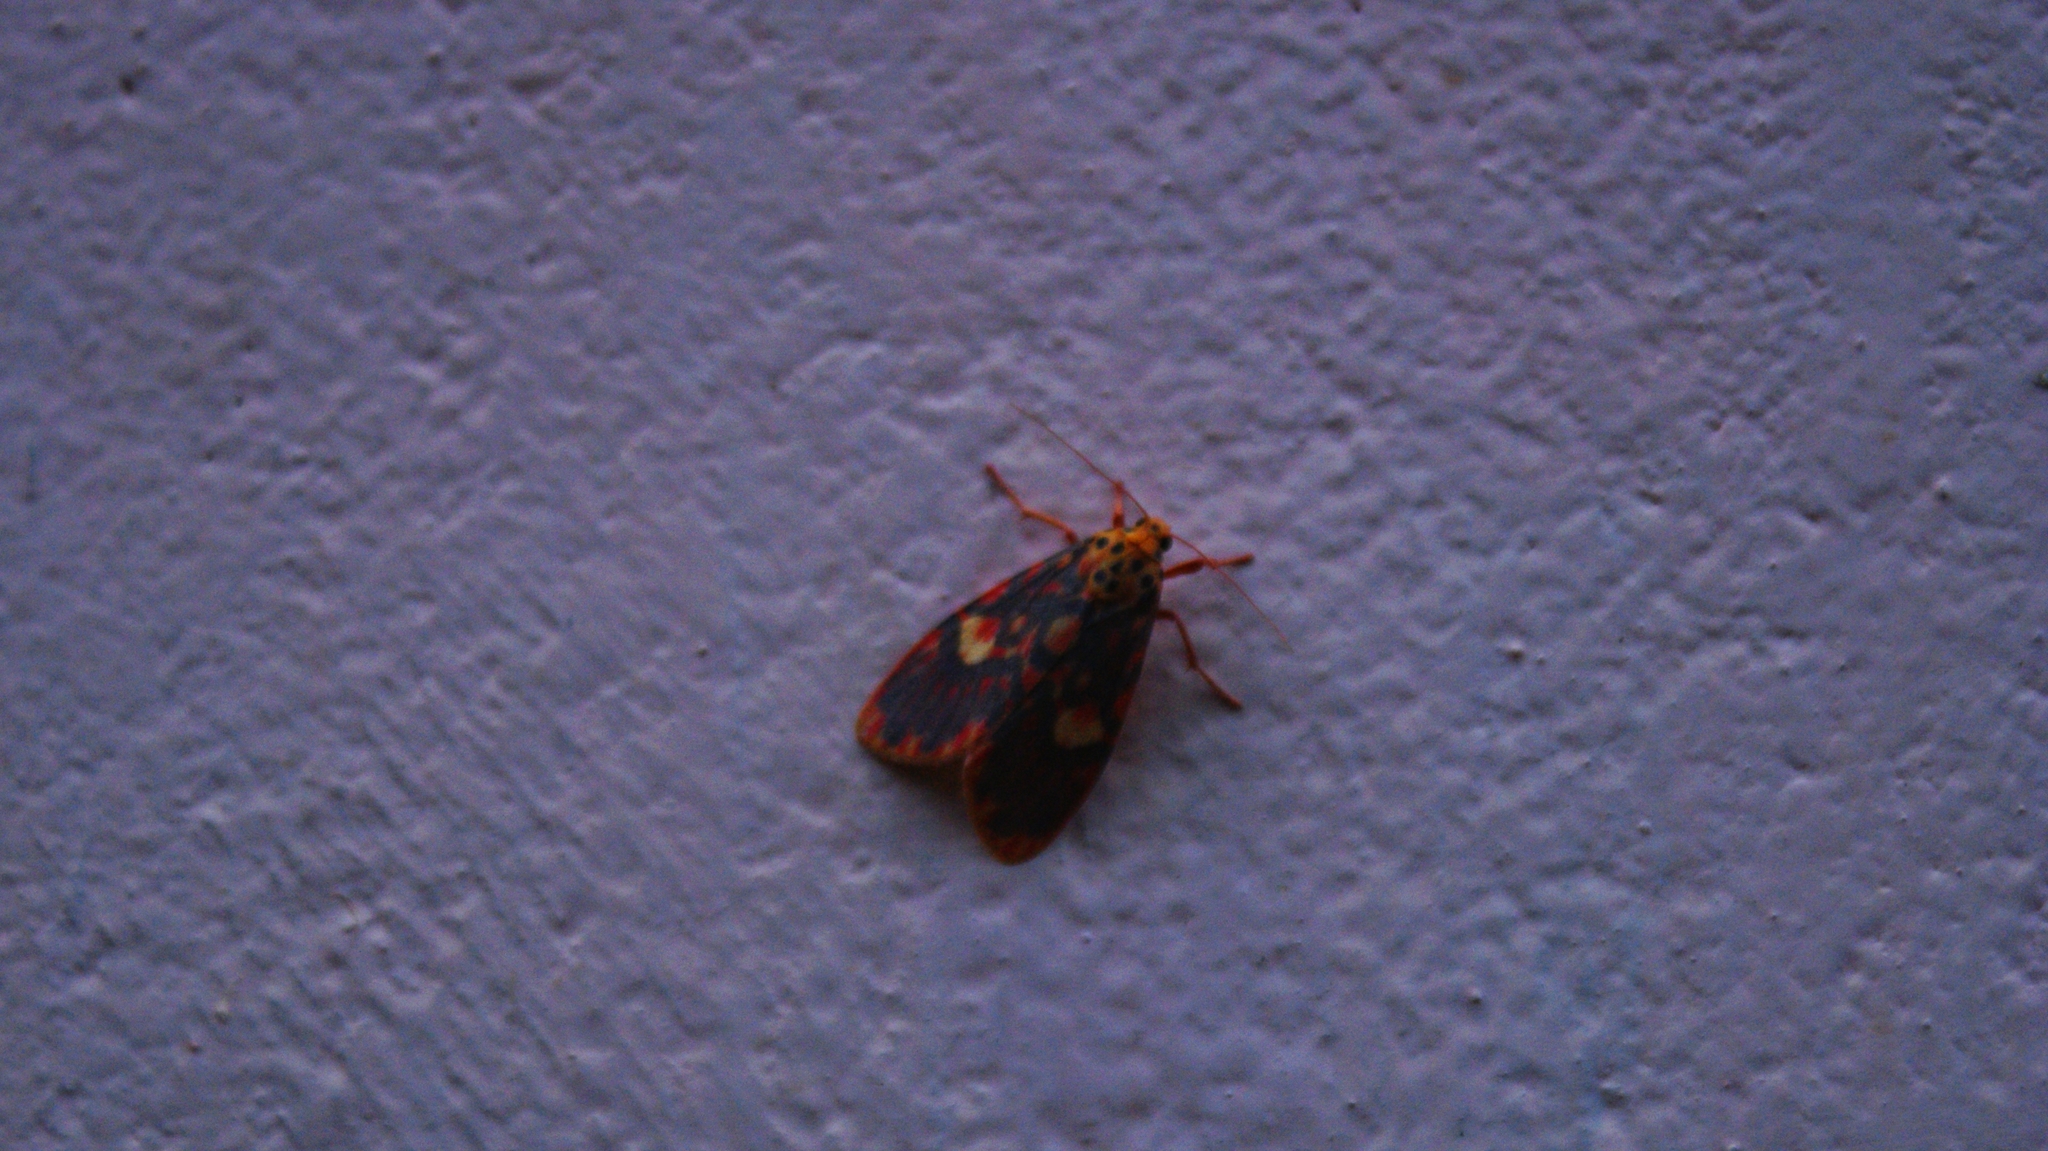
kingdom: Animalia
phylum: Arthropoda
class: Insecta
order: Lepidoptera
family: Erebidae
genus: Ammatho
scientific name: Ammatho cuneonotatus
